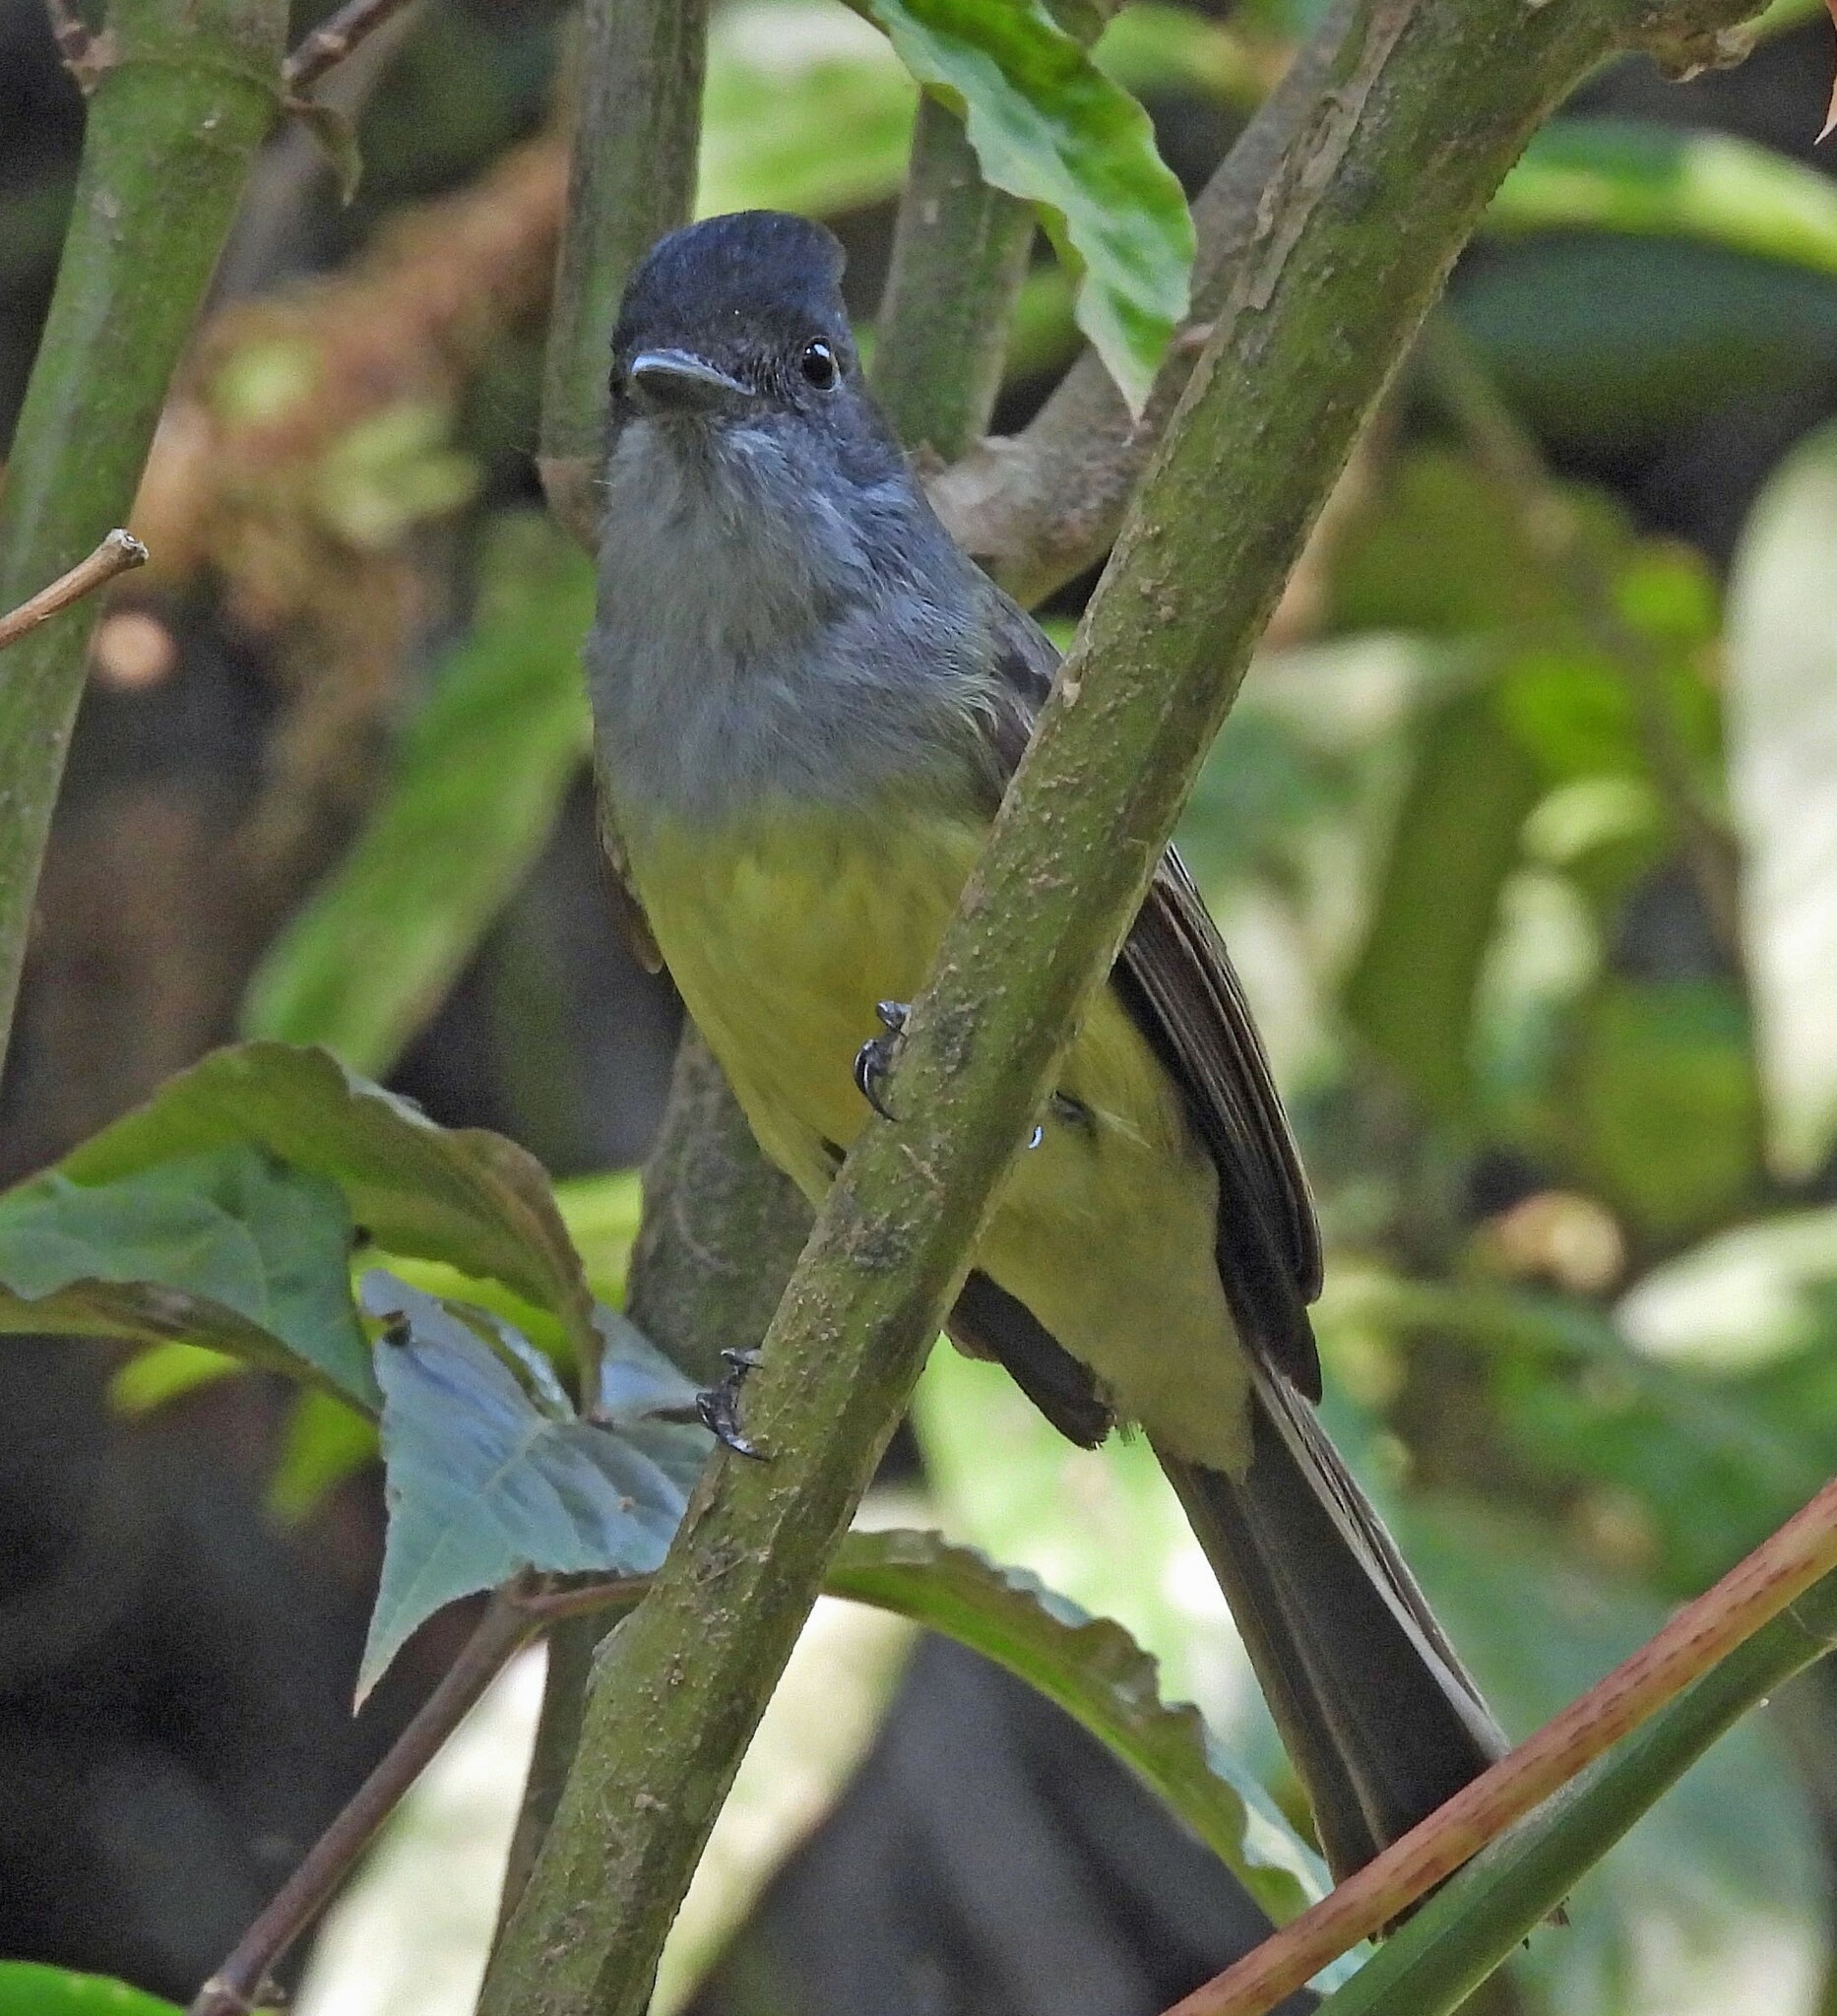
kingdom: Animalia
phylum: Chordata
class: Aves
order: Passeriformes
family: Tyrannidae
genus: Myiarchus
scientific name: Myiarchus tuberculifer
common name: Dusky-capped flycatcher
